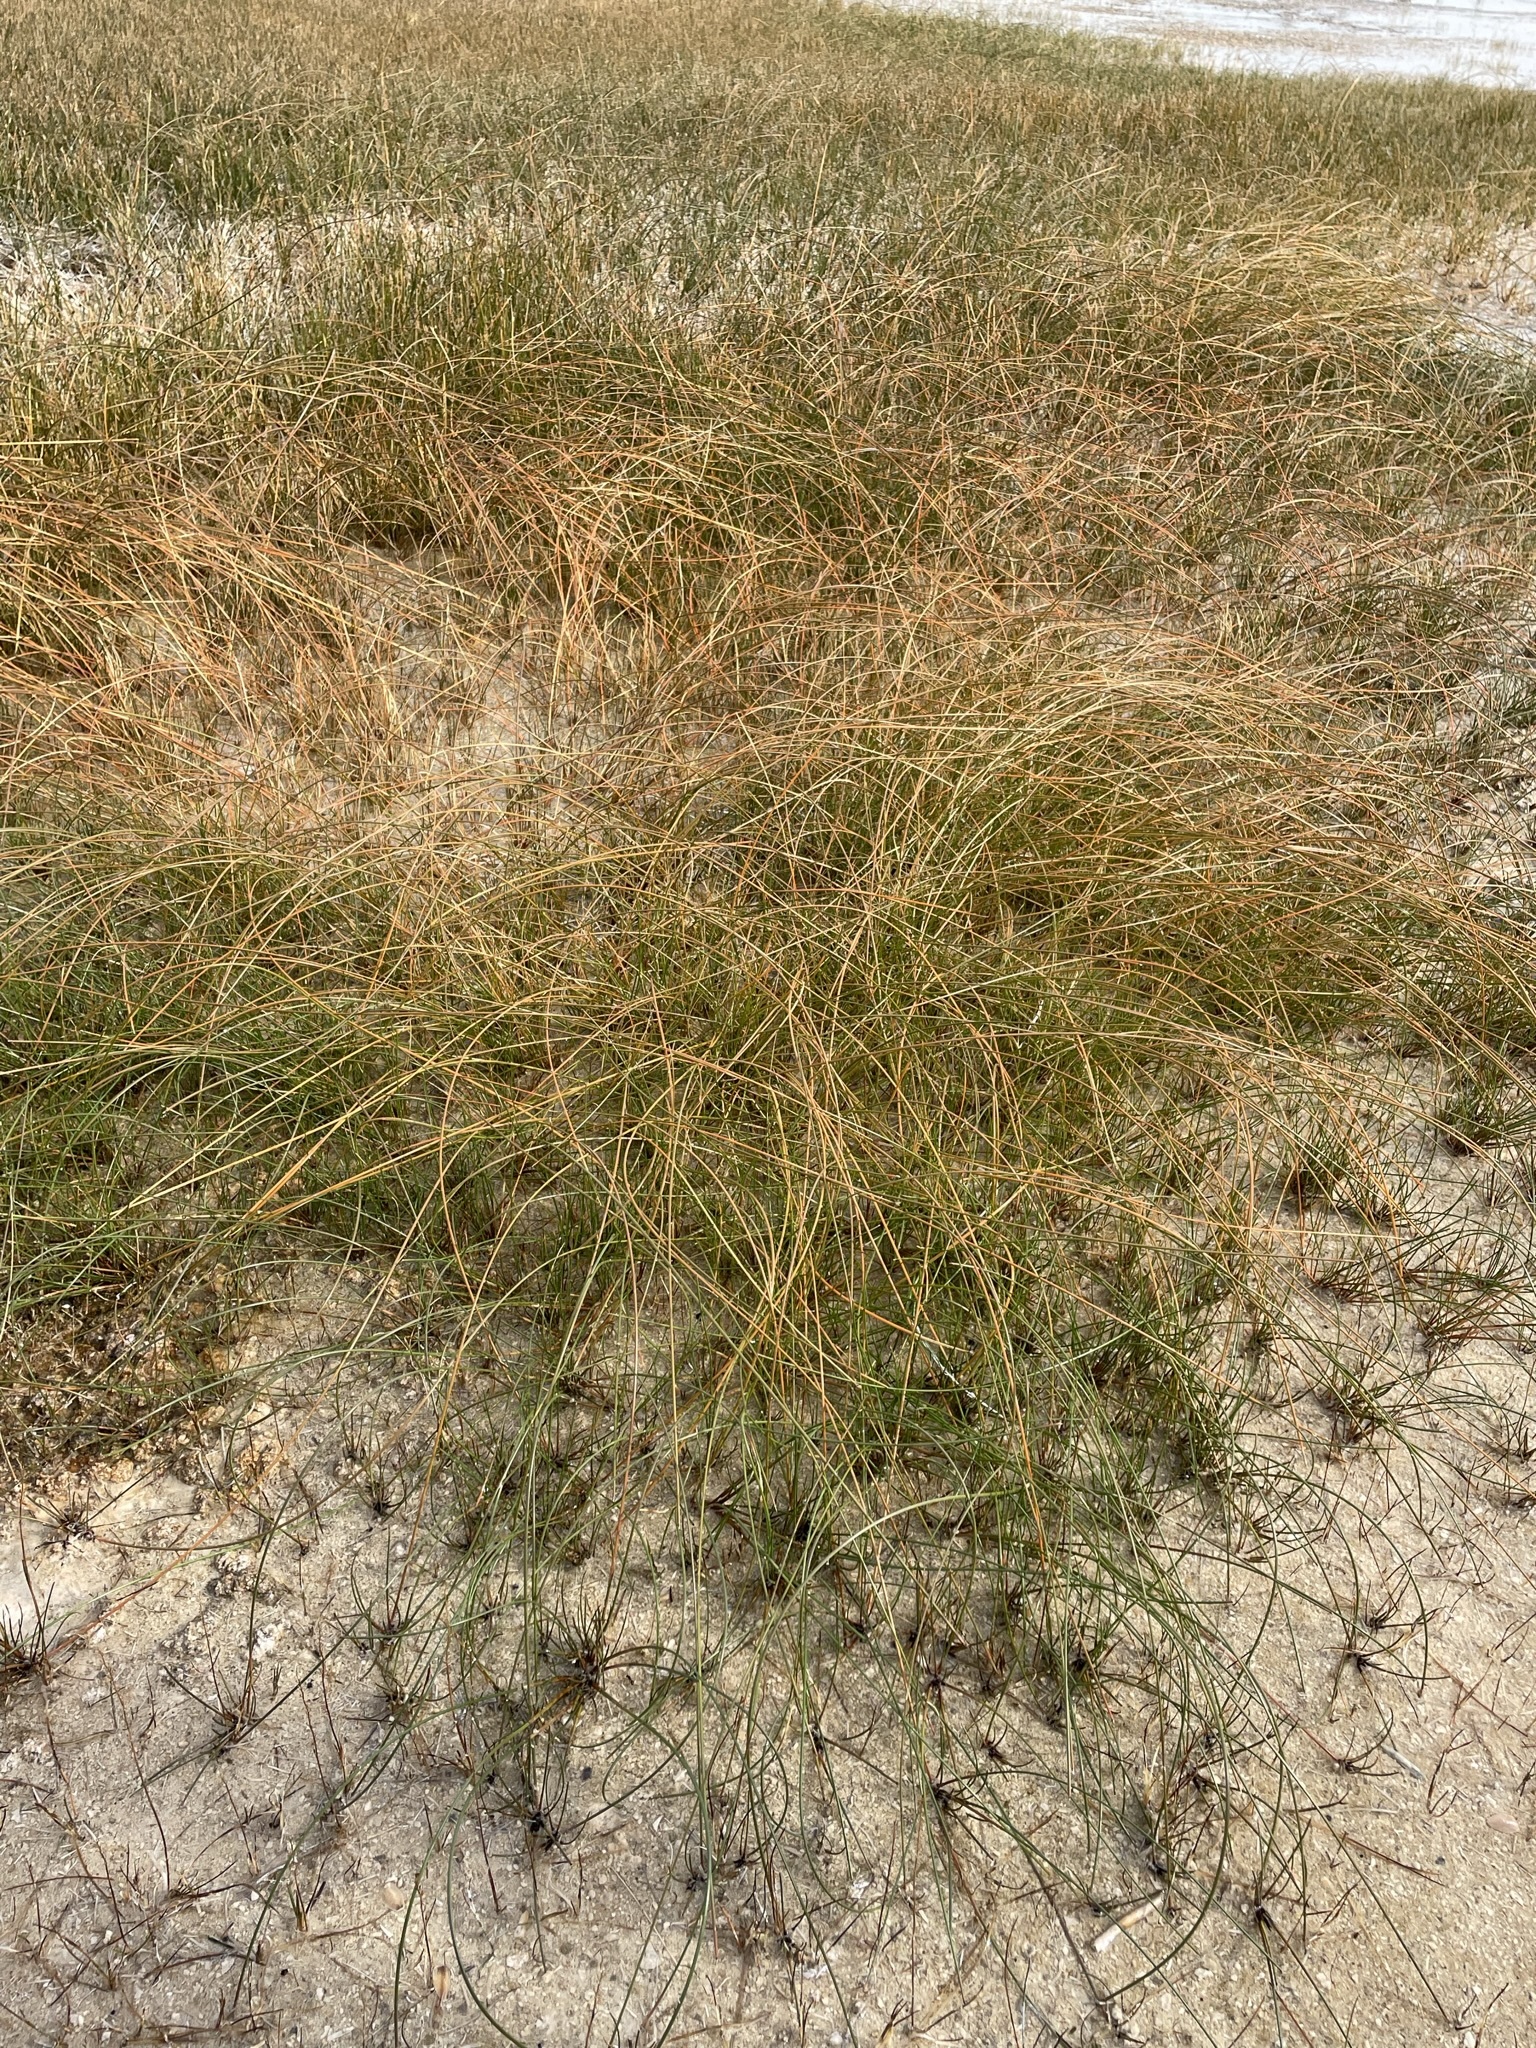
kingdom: Plantae
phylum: Tracheophyta
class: Liliopsida
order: Poales
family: Cyperaceae
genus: Eleocharis
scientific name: Eleocharis rostellata
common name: Walking sedge
